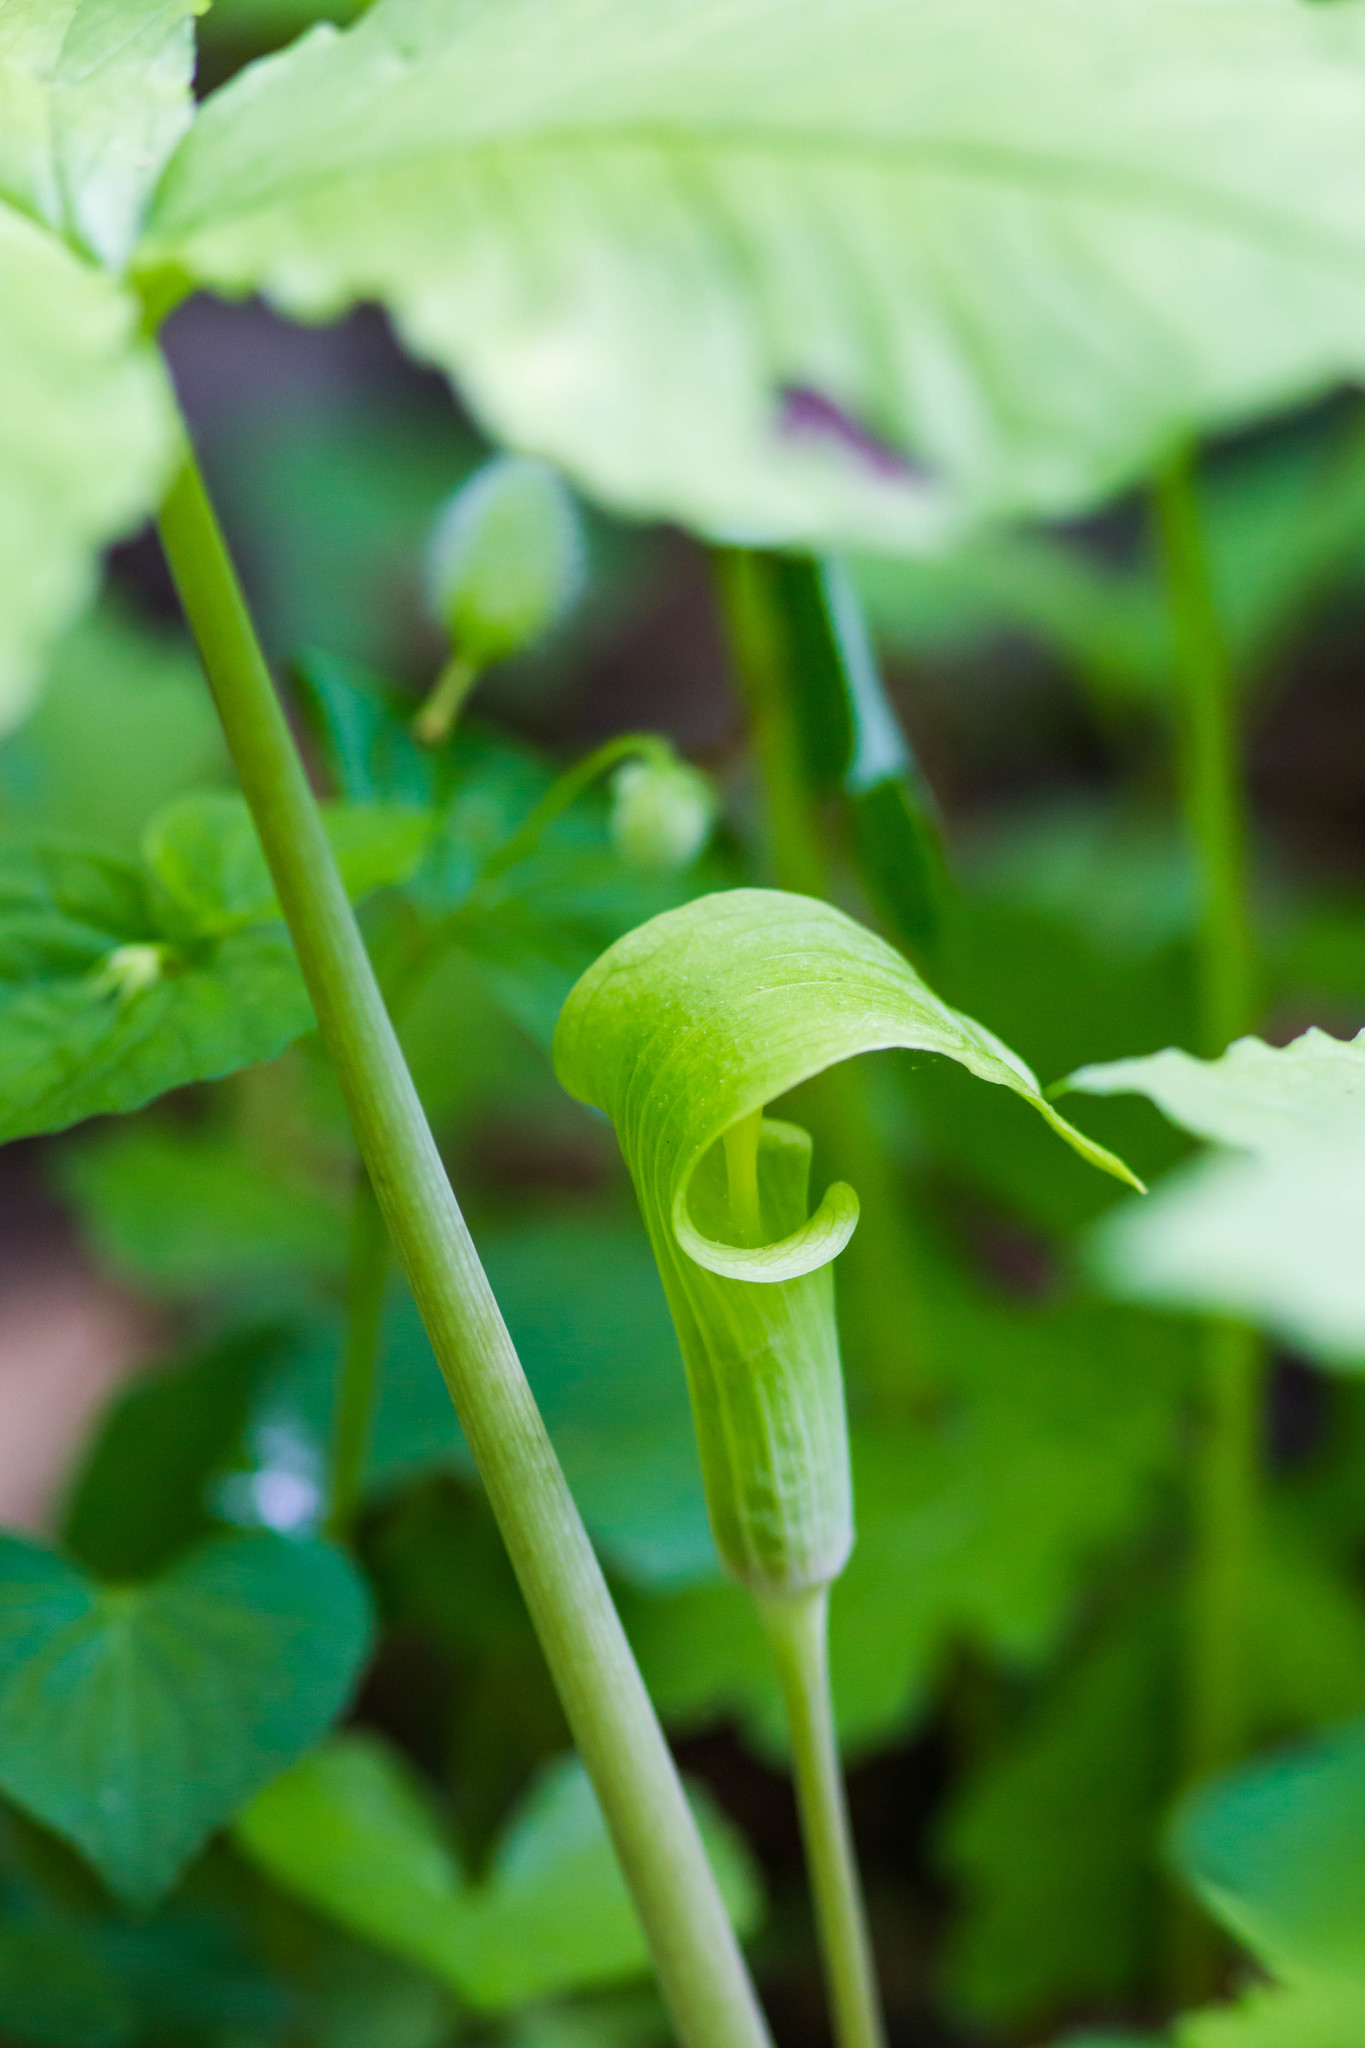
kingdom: Plantae
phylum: Tracheophyta
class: Liliopsida
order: Alismatales
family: Araceae
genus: Arisaema
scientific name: Arisaema triphyllum
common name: Jack-in-the-pulpit
